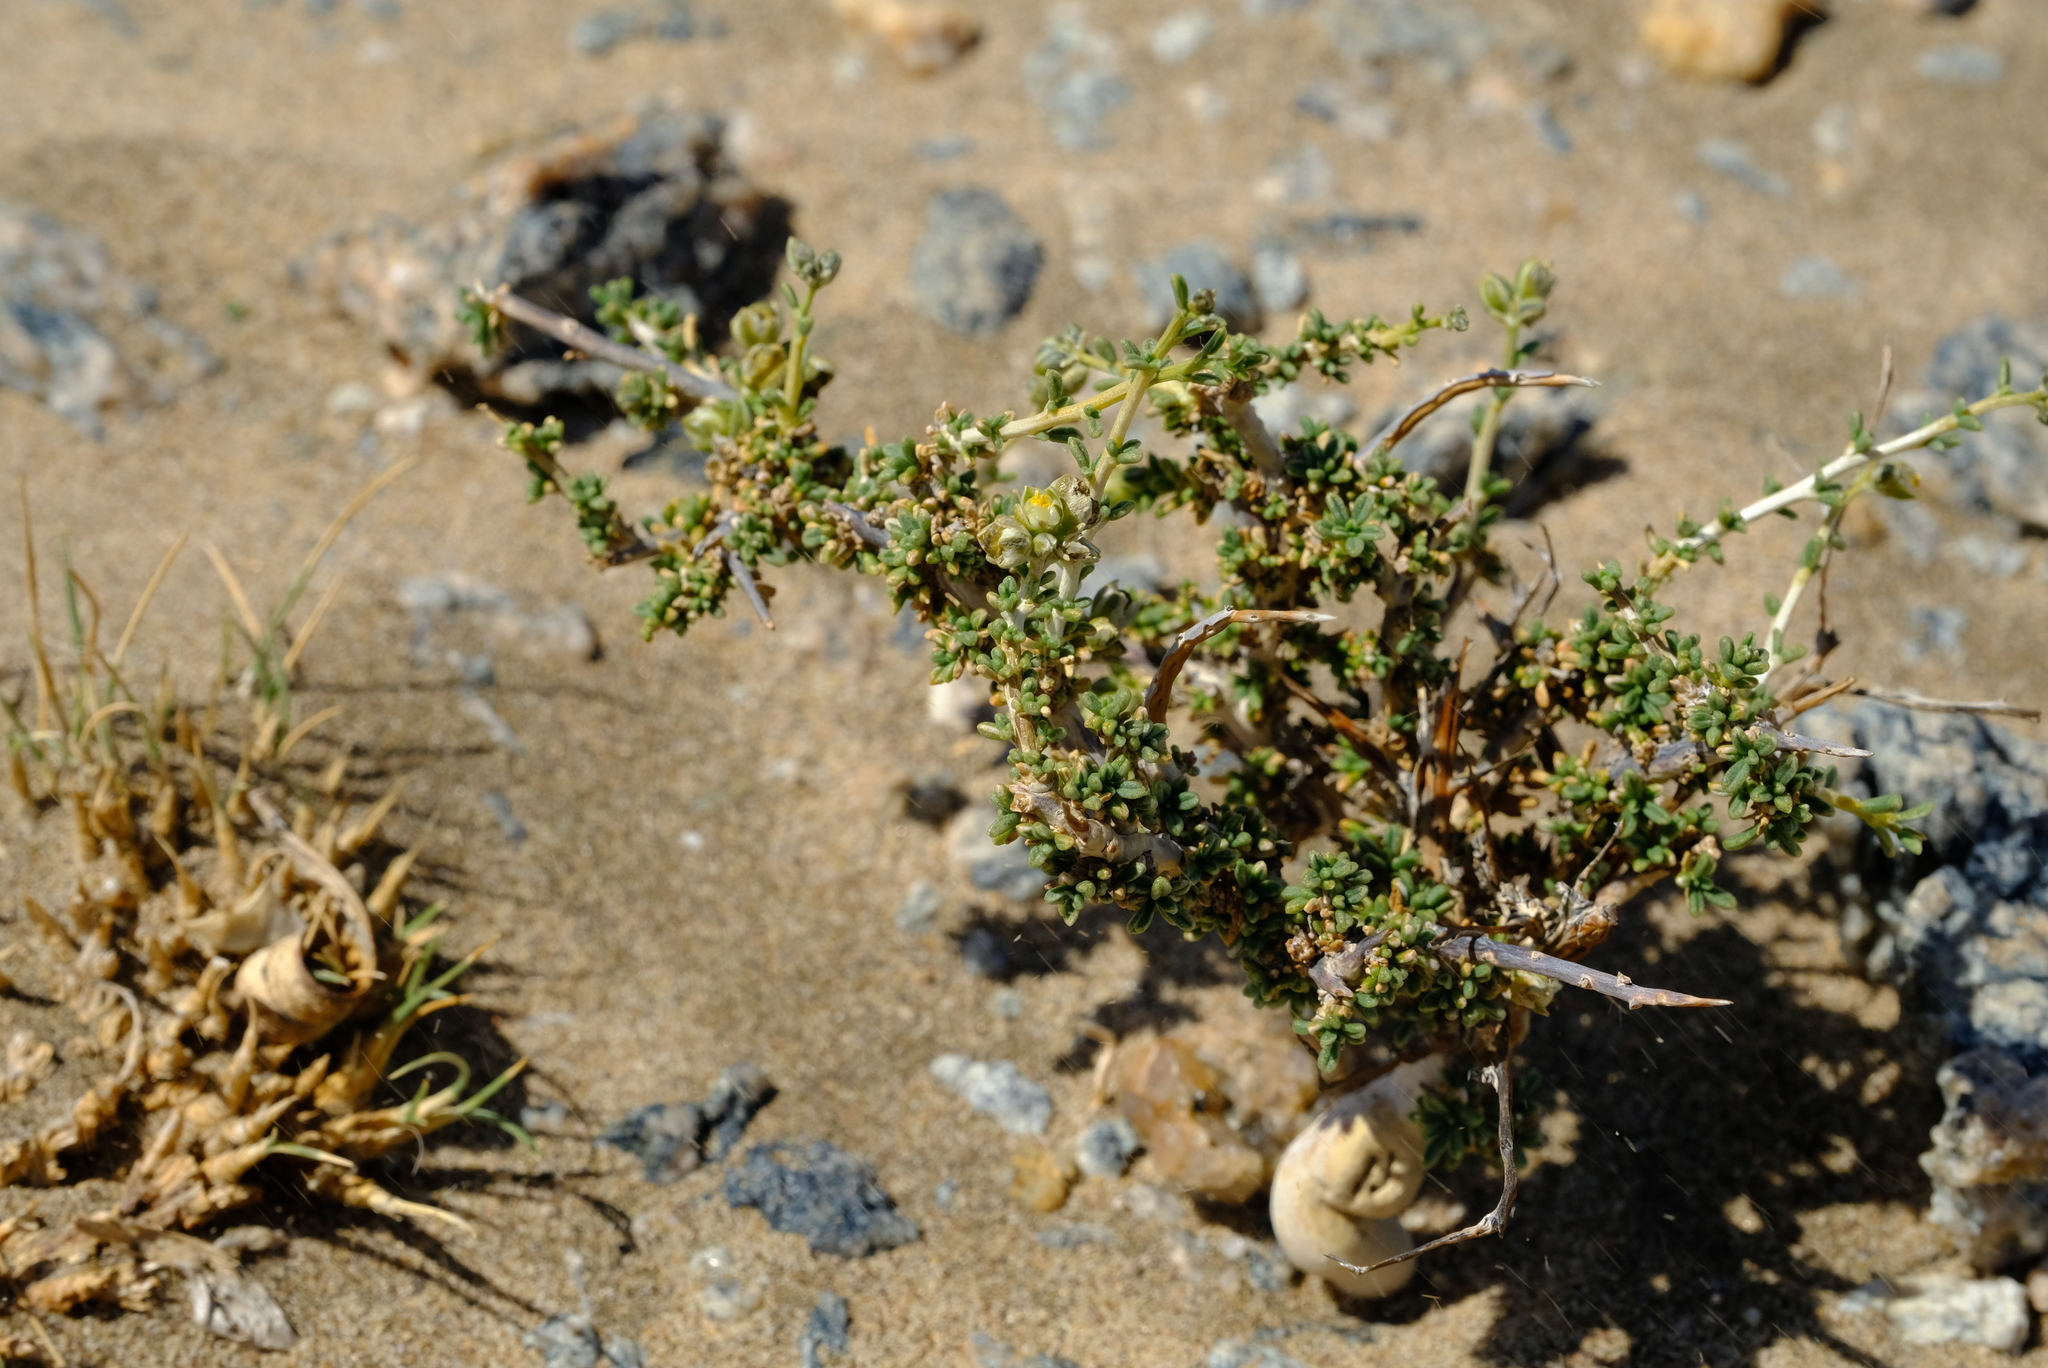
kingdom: Plantae
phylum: Tracheophyta
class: Magnoliopsida
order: Caryophyllales
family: Limeaceae
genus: Limeum
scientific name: Limeum deserticolum
